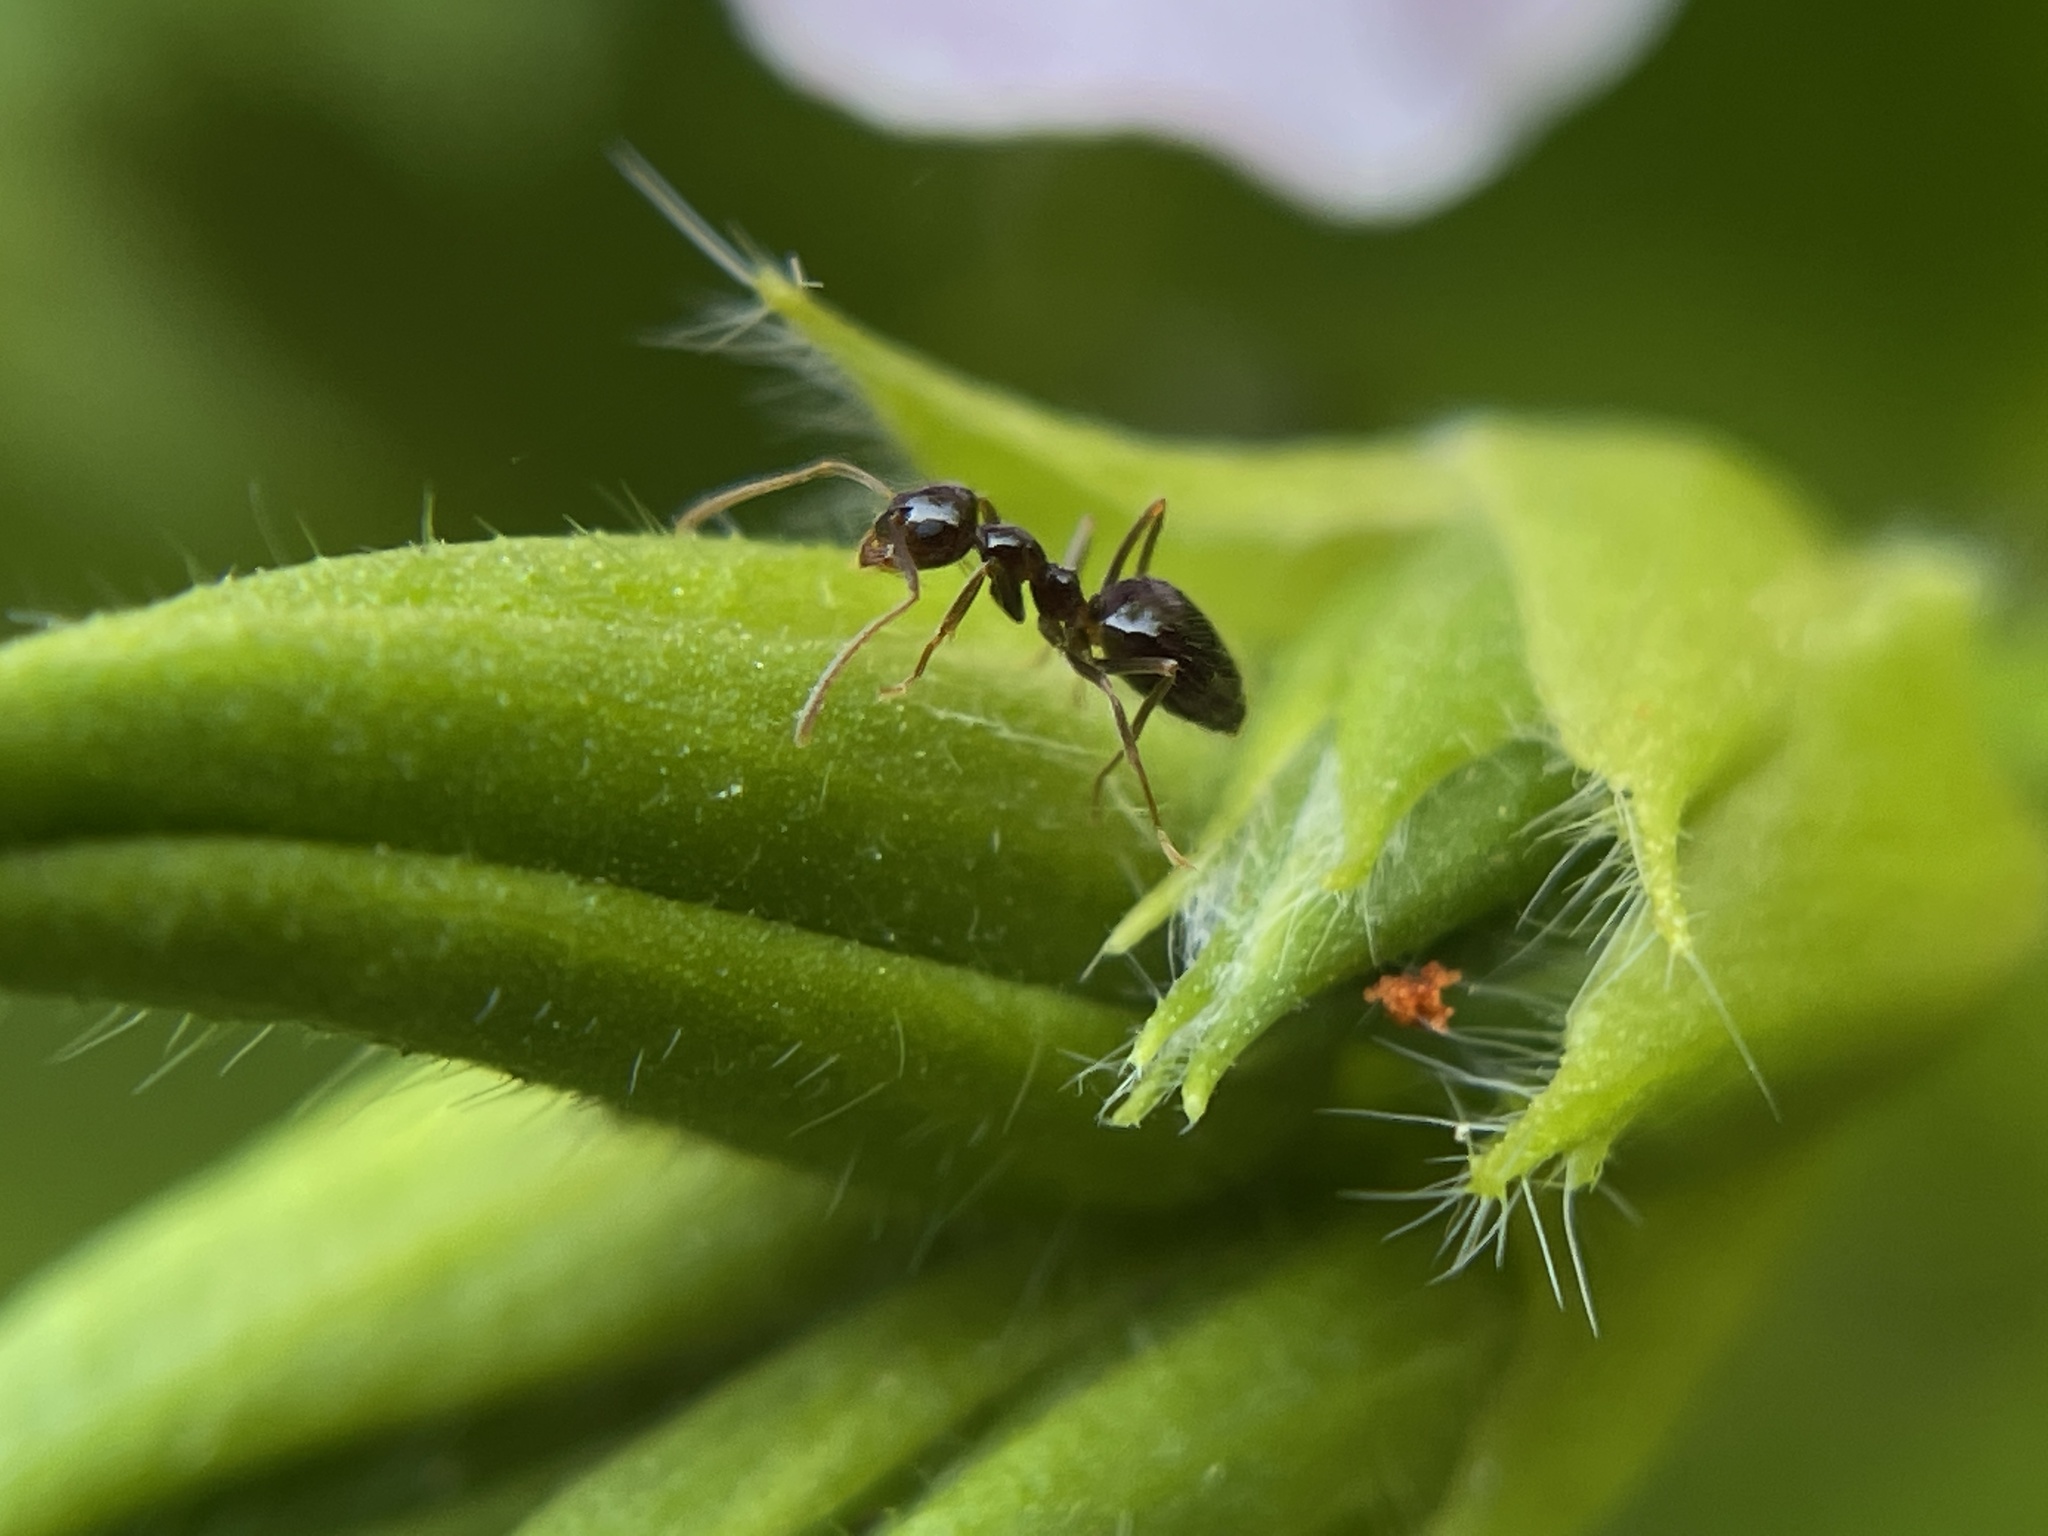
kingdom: Animalia
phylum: Arthropoda
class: Insecta
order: Hymenoptera
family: Formicidae
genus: Prenolepis
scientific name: Prenolepis imparis
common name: Small honey ant
